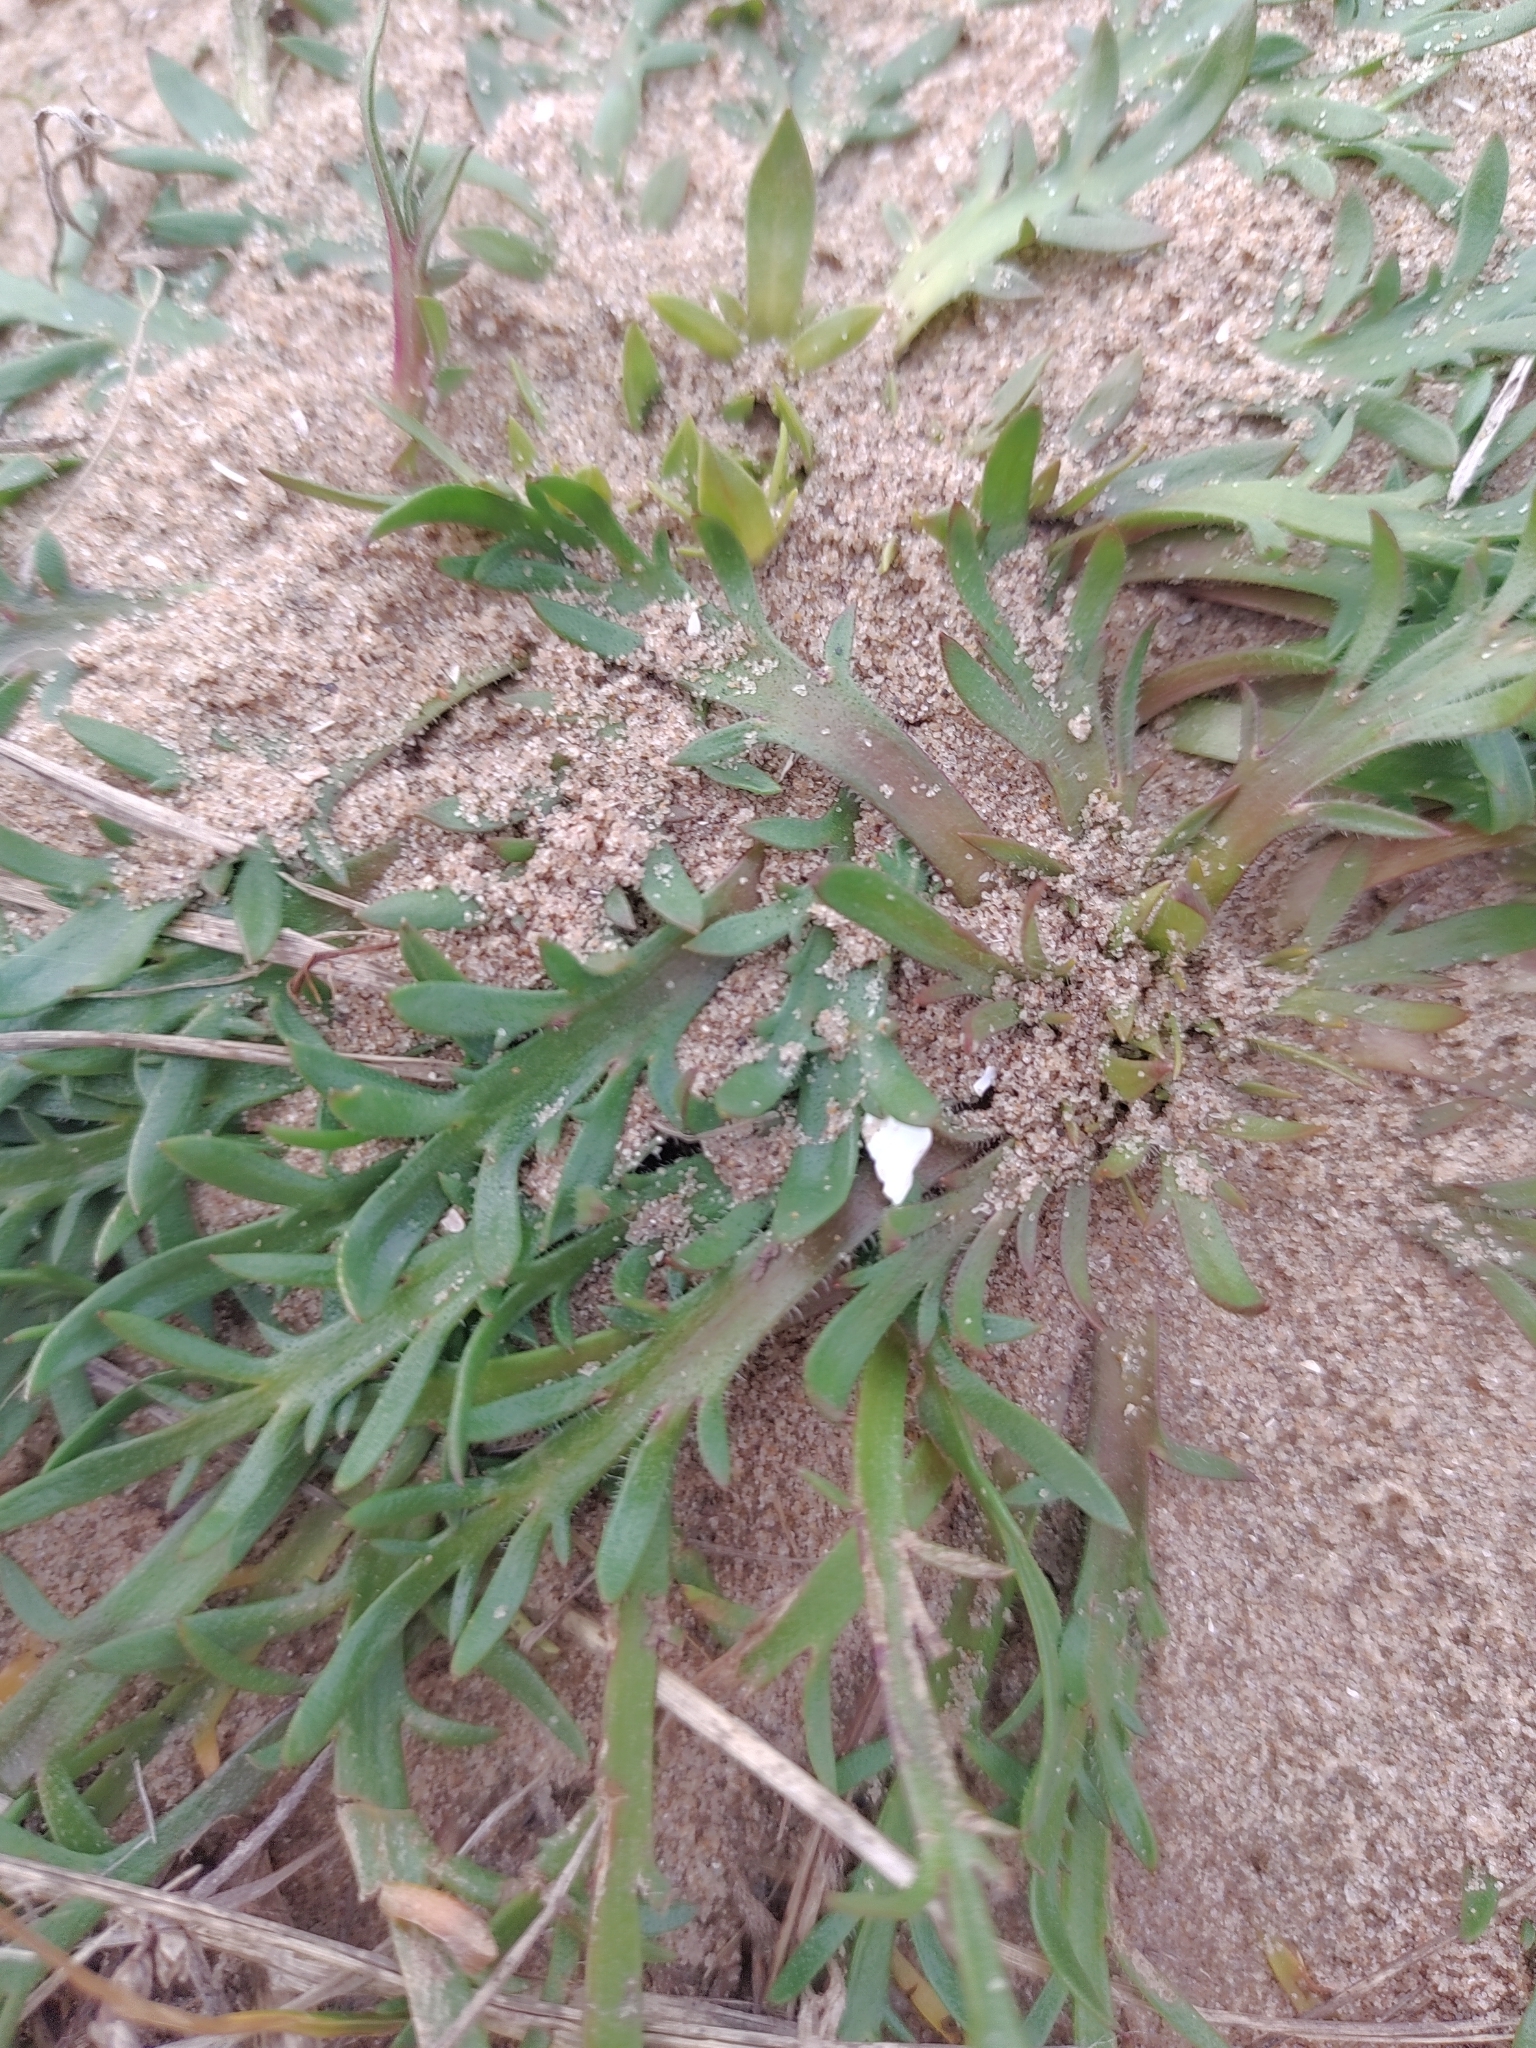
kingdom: Plantae
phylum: Tracheophyta
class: Magnoliopsida
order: Lamiales
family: Plantaginaceae
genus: Plantago
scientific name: Plantago coronopus
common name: Buck's-horn plantain
